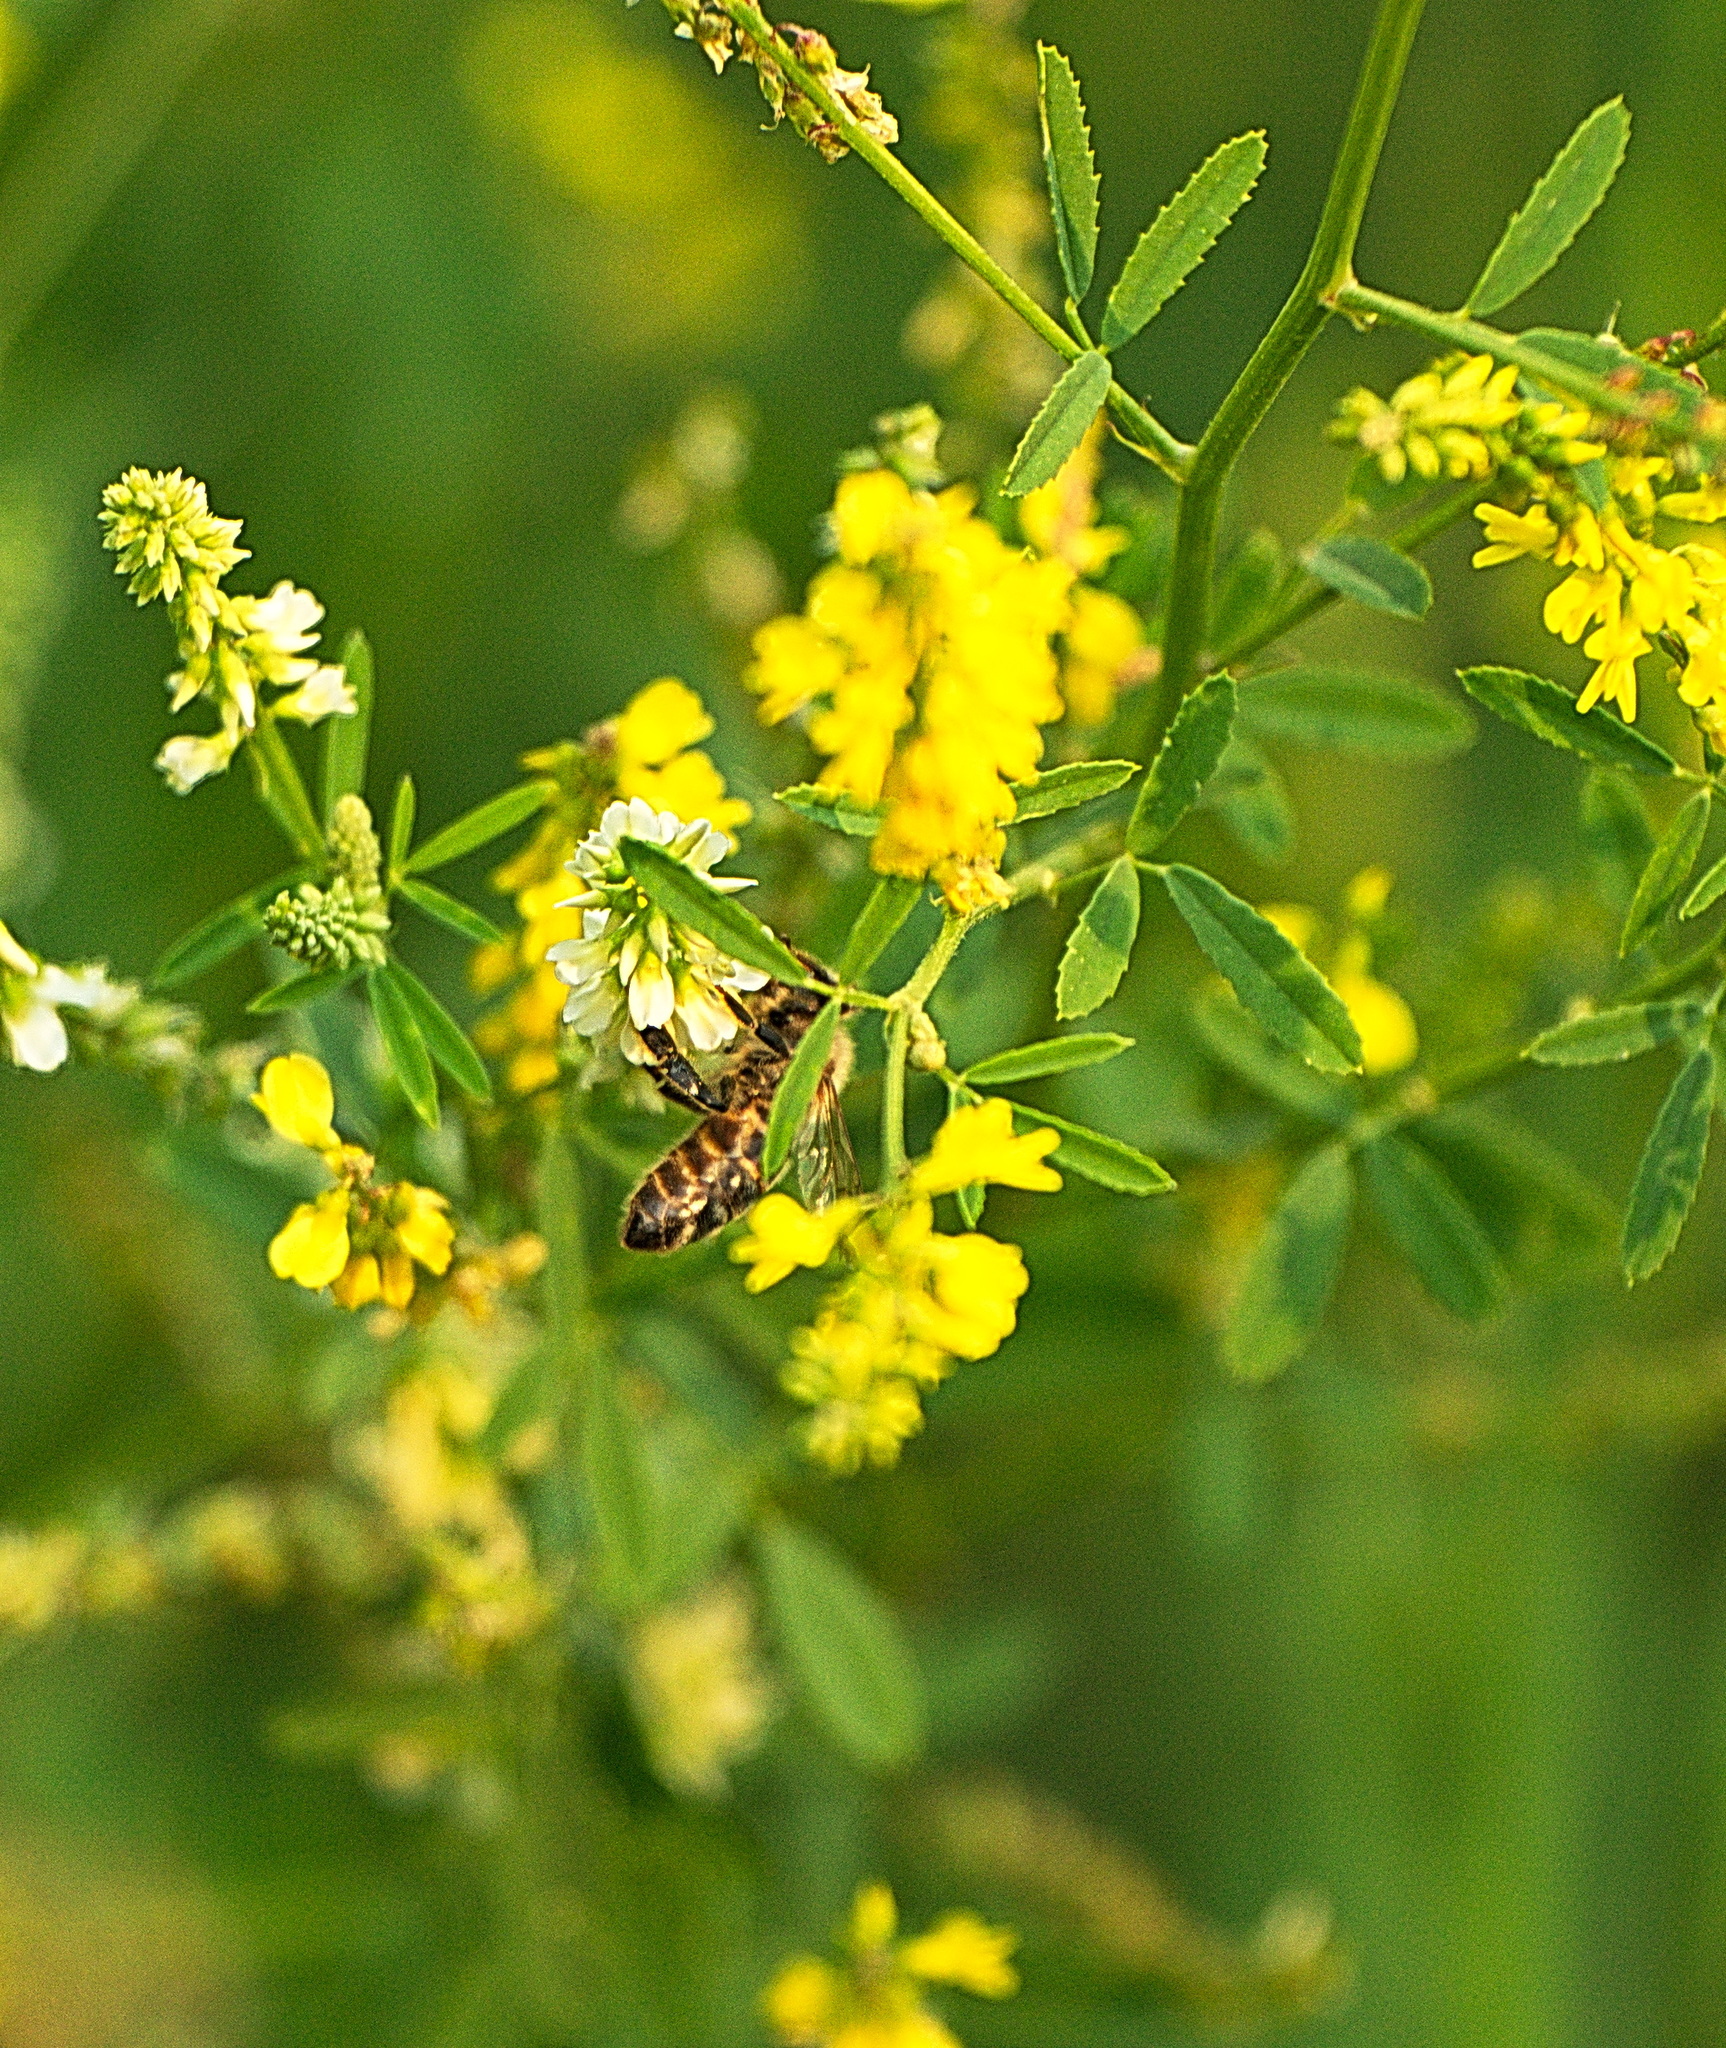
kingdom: Animalia
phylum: Arthropoda
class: Insecta
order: Hymenoptera
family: Apidae
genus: Apis
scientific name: Apis mellifera
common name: Honey bee
